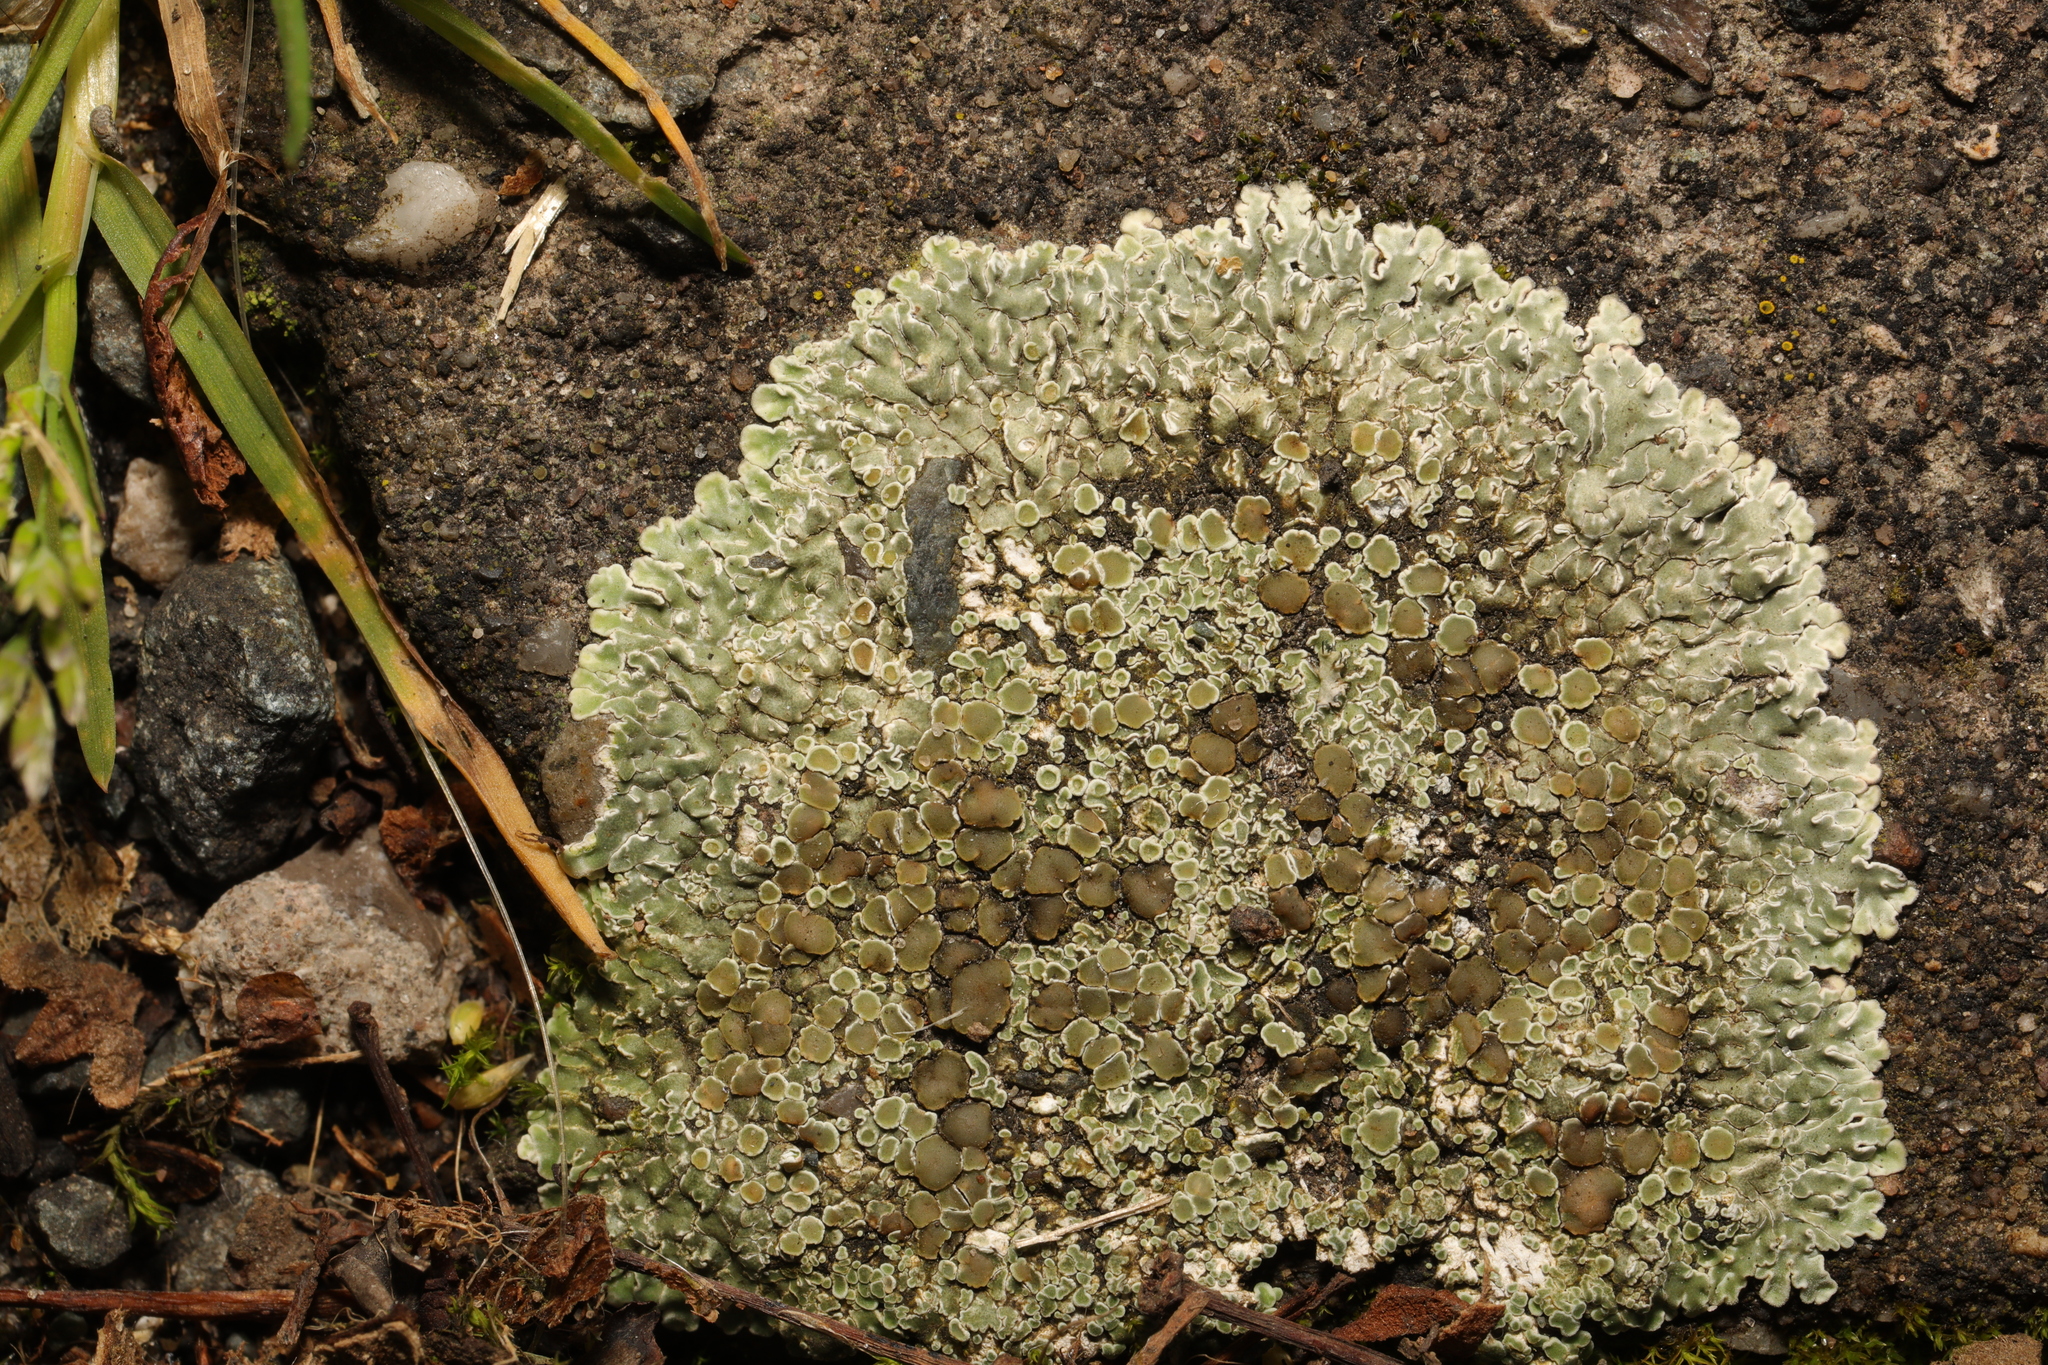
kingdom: Fungi
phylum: Ascomycota
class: Lecanoromycetes
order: Lecanorales
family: Lecanoraceae
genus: Protoparmeliopsis
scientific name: Protoparmeliopsis muralis
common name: Stonewall rim lichen
